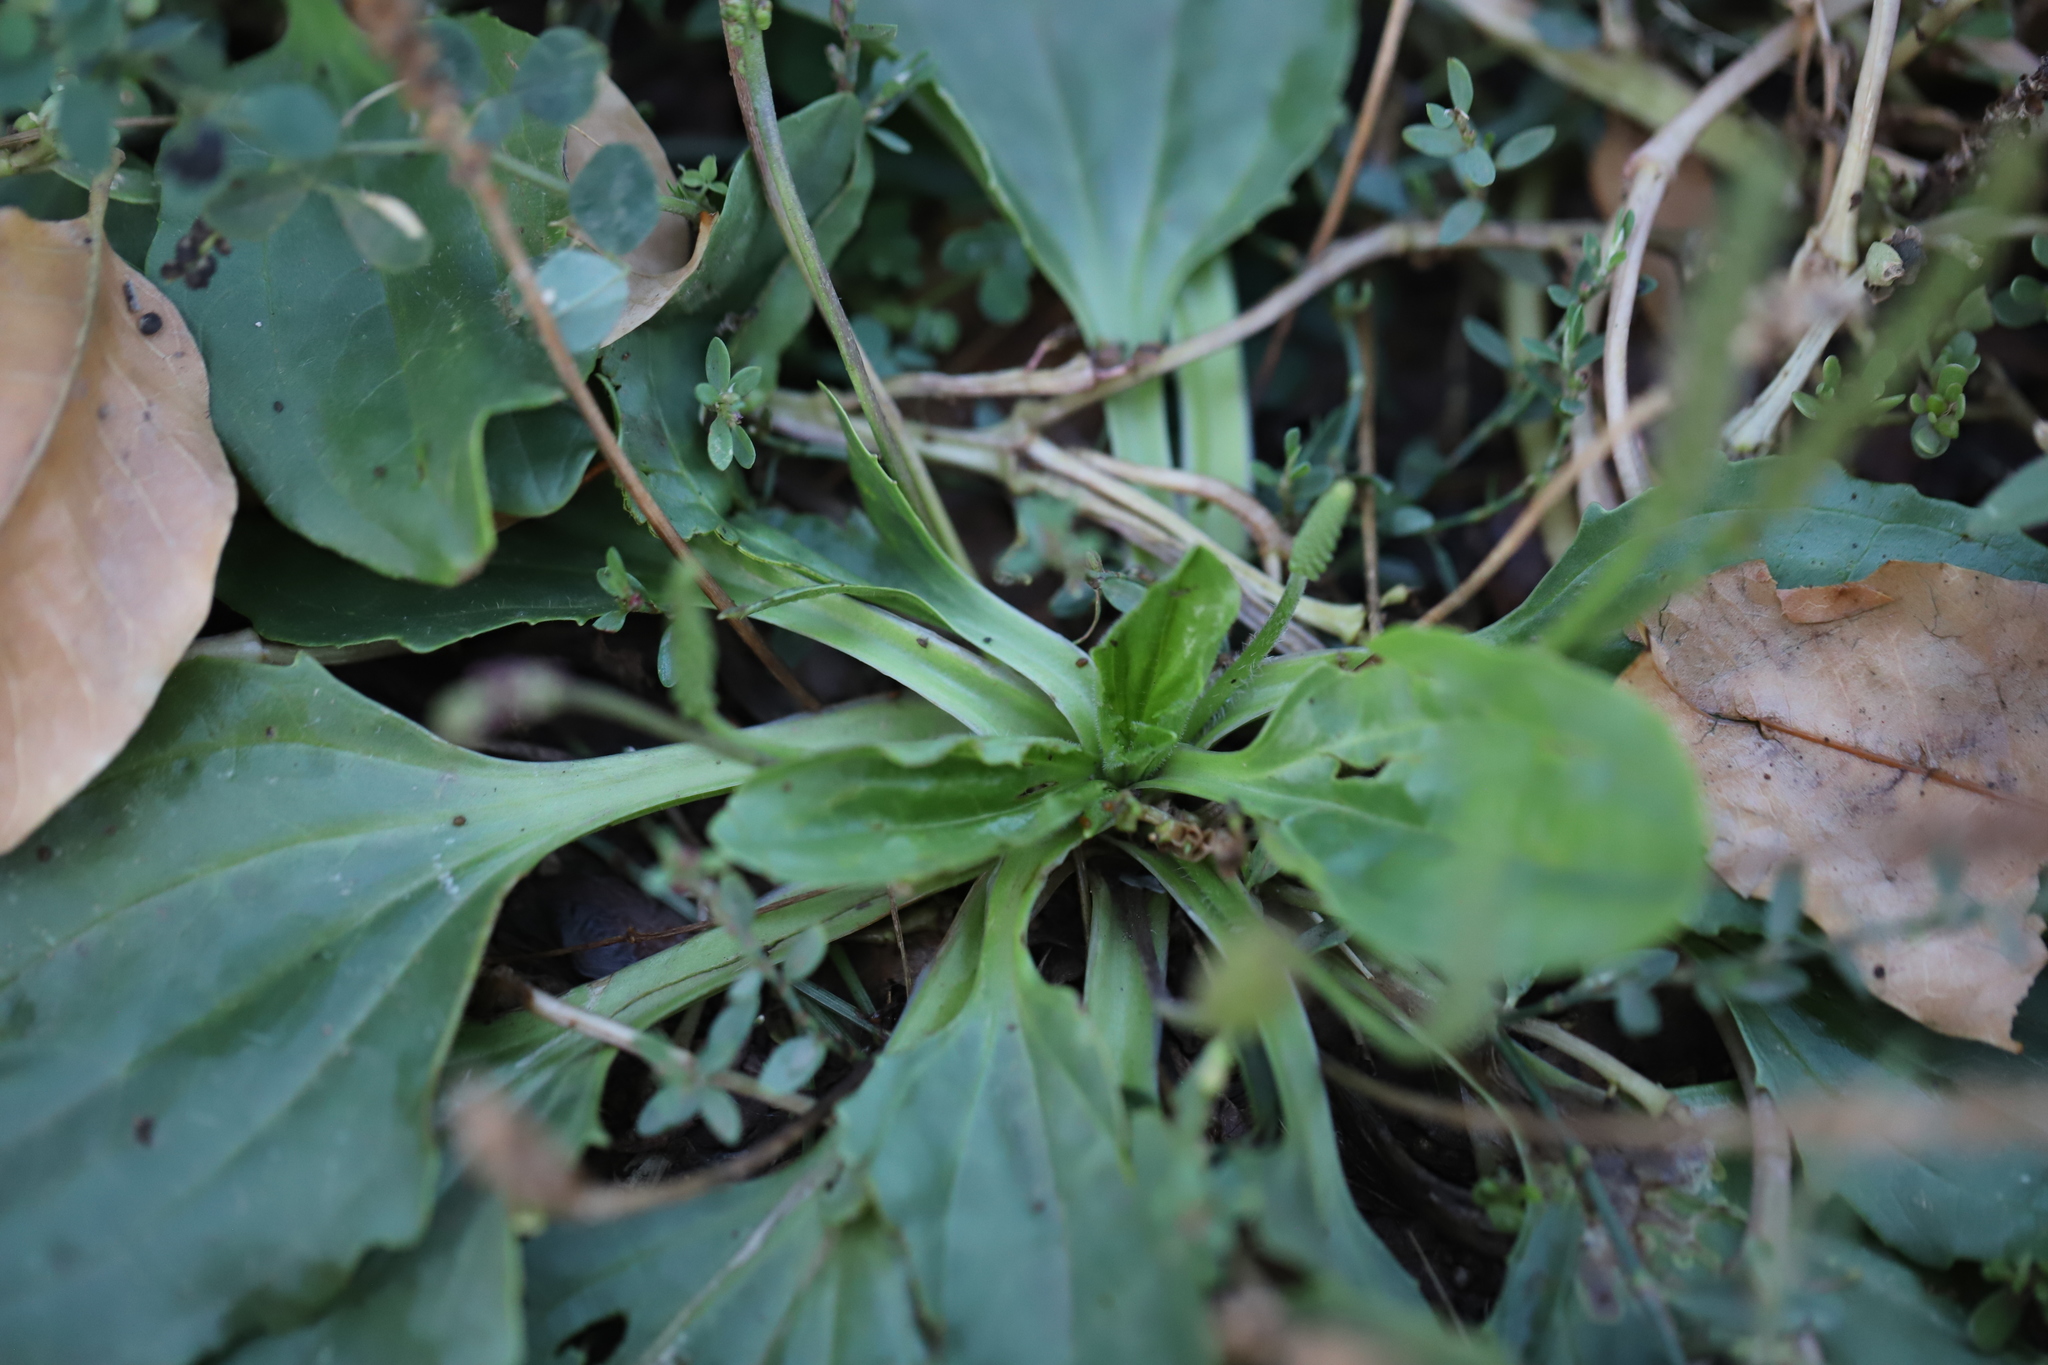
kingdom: Plantae
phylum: Tracheophyta
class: Magnoliopsida
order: Lamiales
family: Plantaginaceae
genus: Plantago
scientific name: Plantago major
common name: Common plantain
